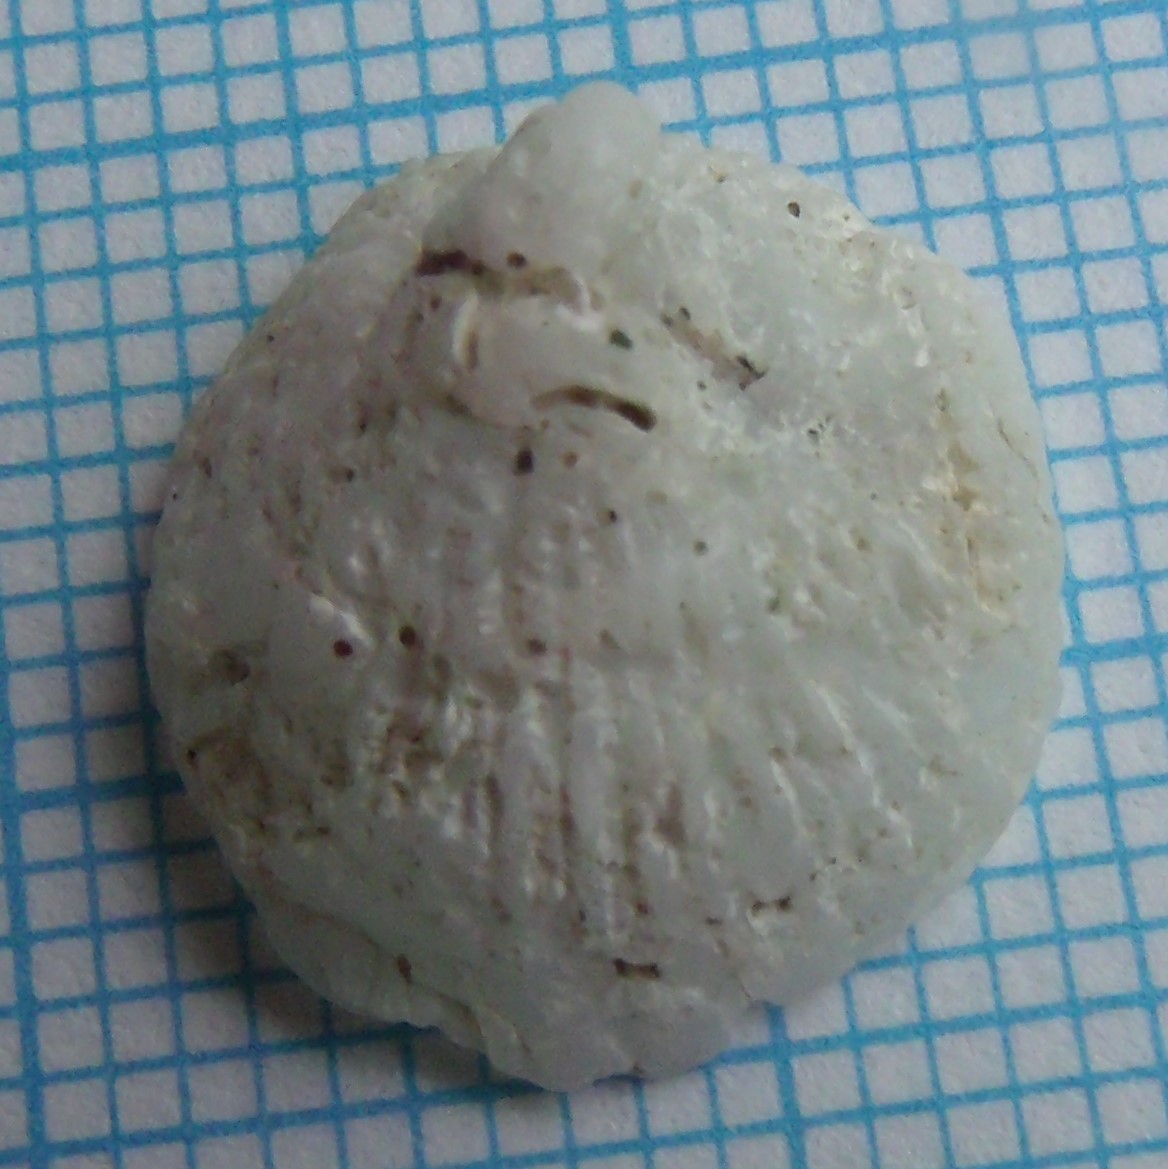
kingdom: Animalia
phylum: Mollusca
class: Gastropoda
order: Ellobiida
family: Trimusculidae
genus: Trimusculus
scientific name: Trimusculus conicus
